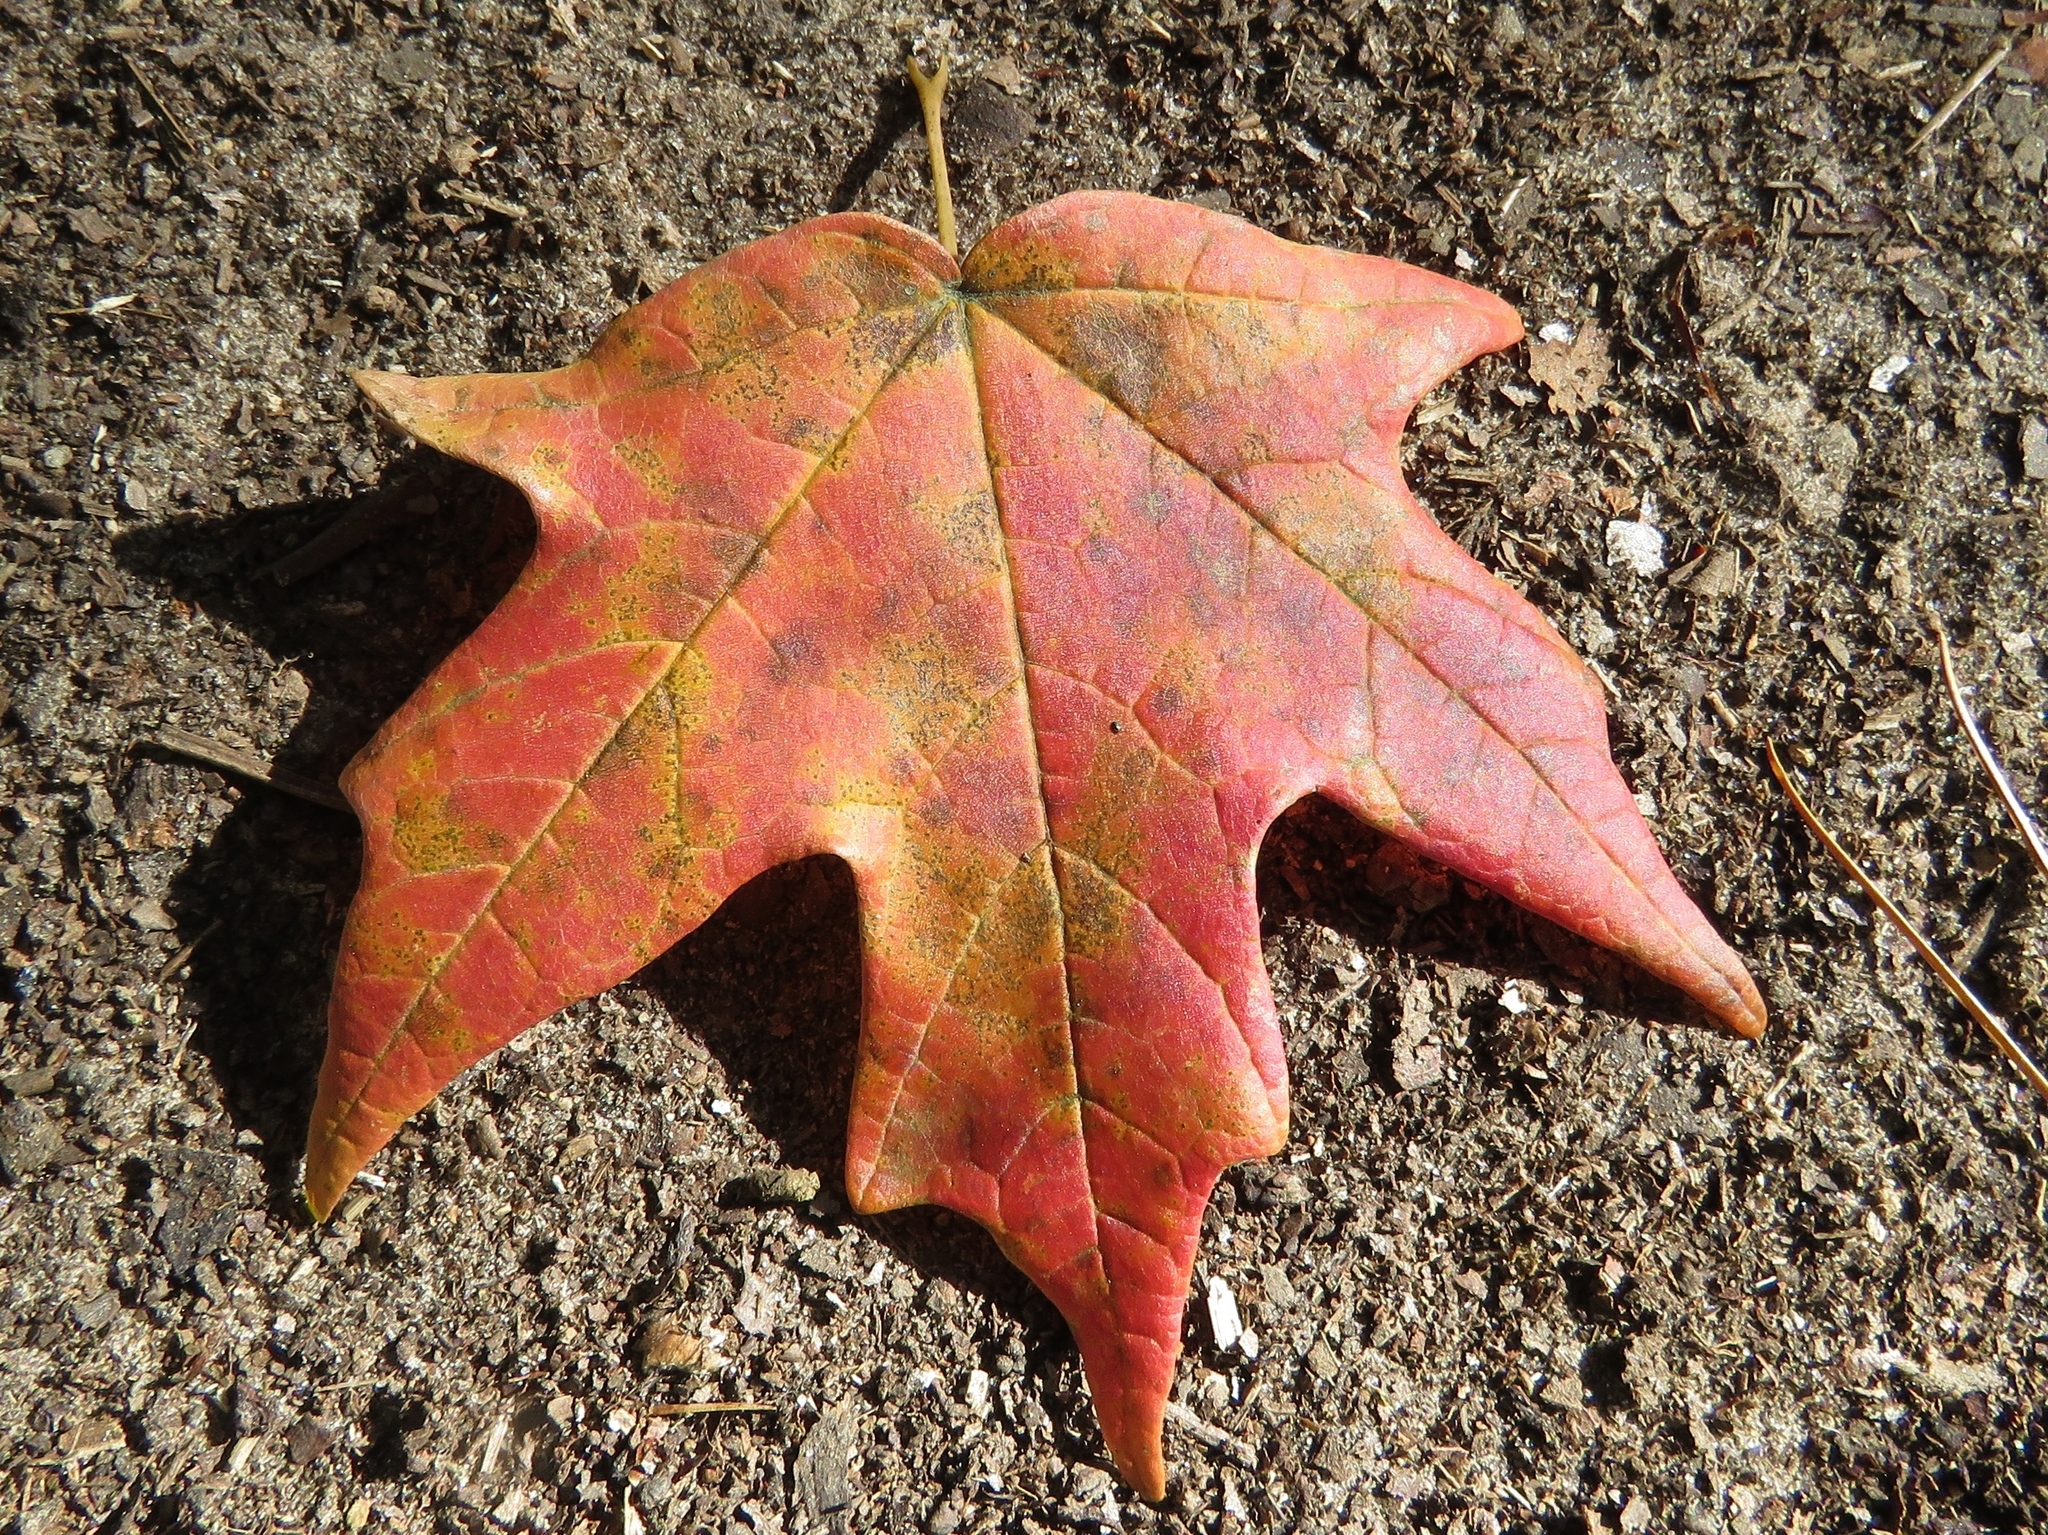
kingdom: Plantae
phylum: Tracheophyta
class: Magnoliopsida
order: Sapindales
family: Sapindaceae
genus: Acer
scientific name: Acer floridanum
